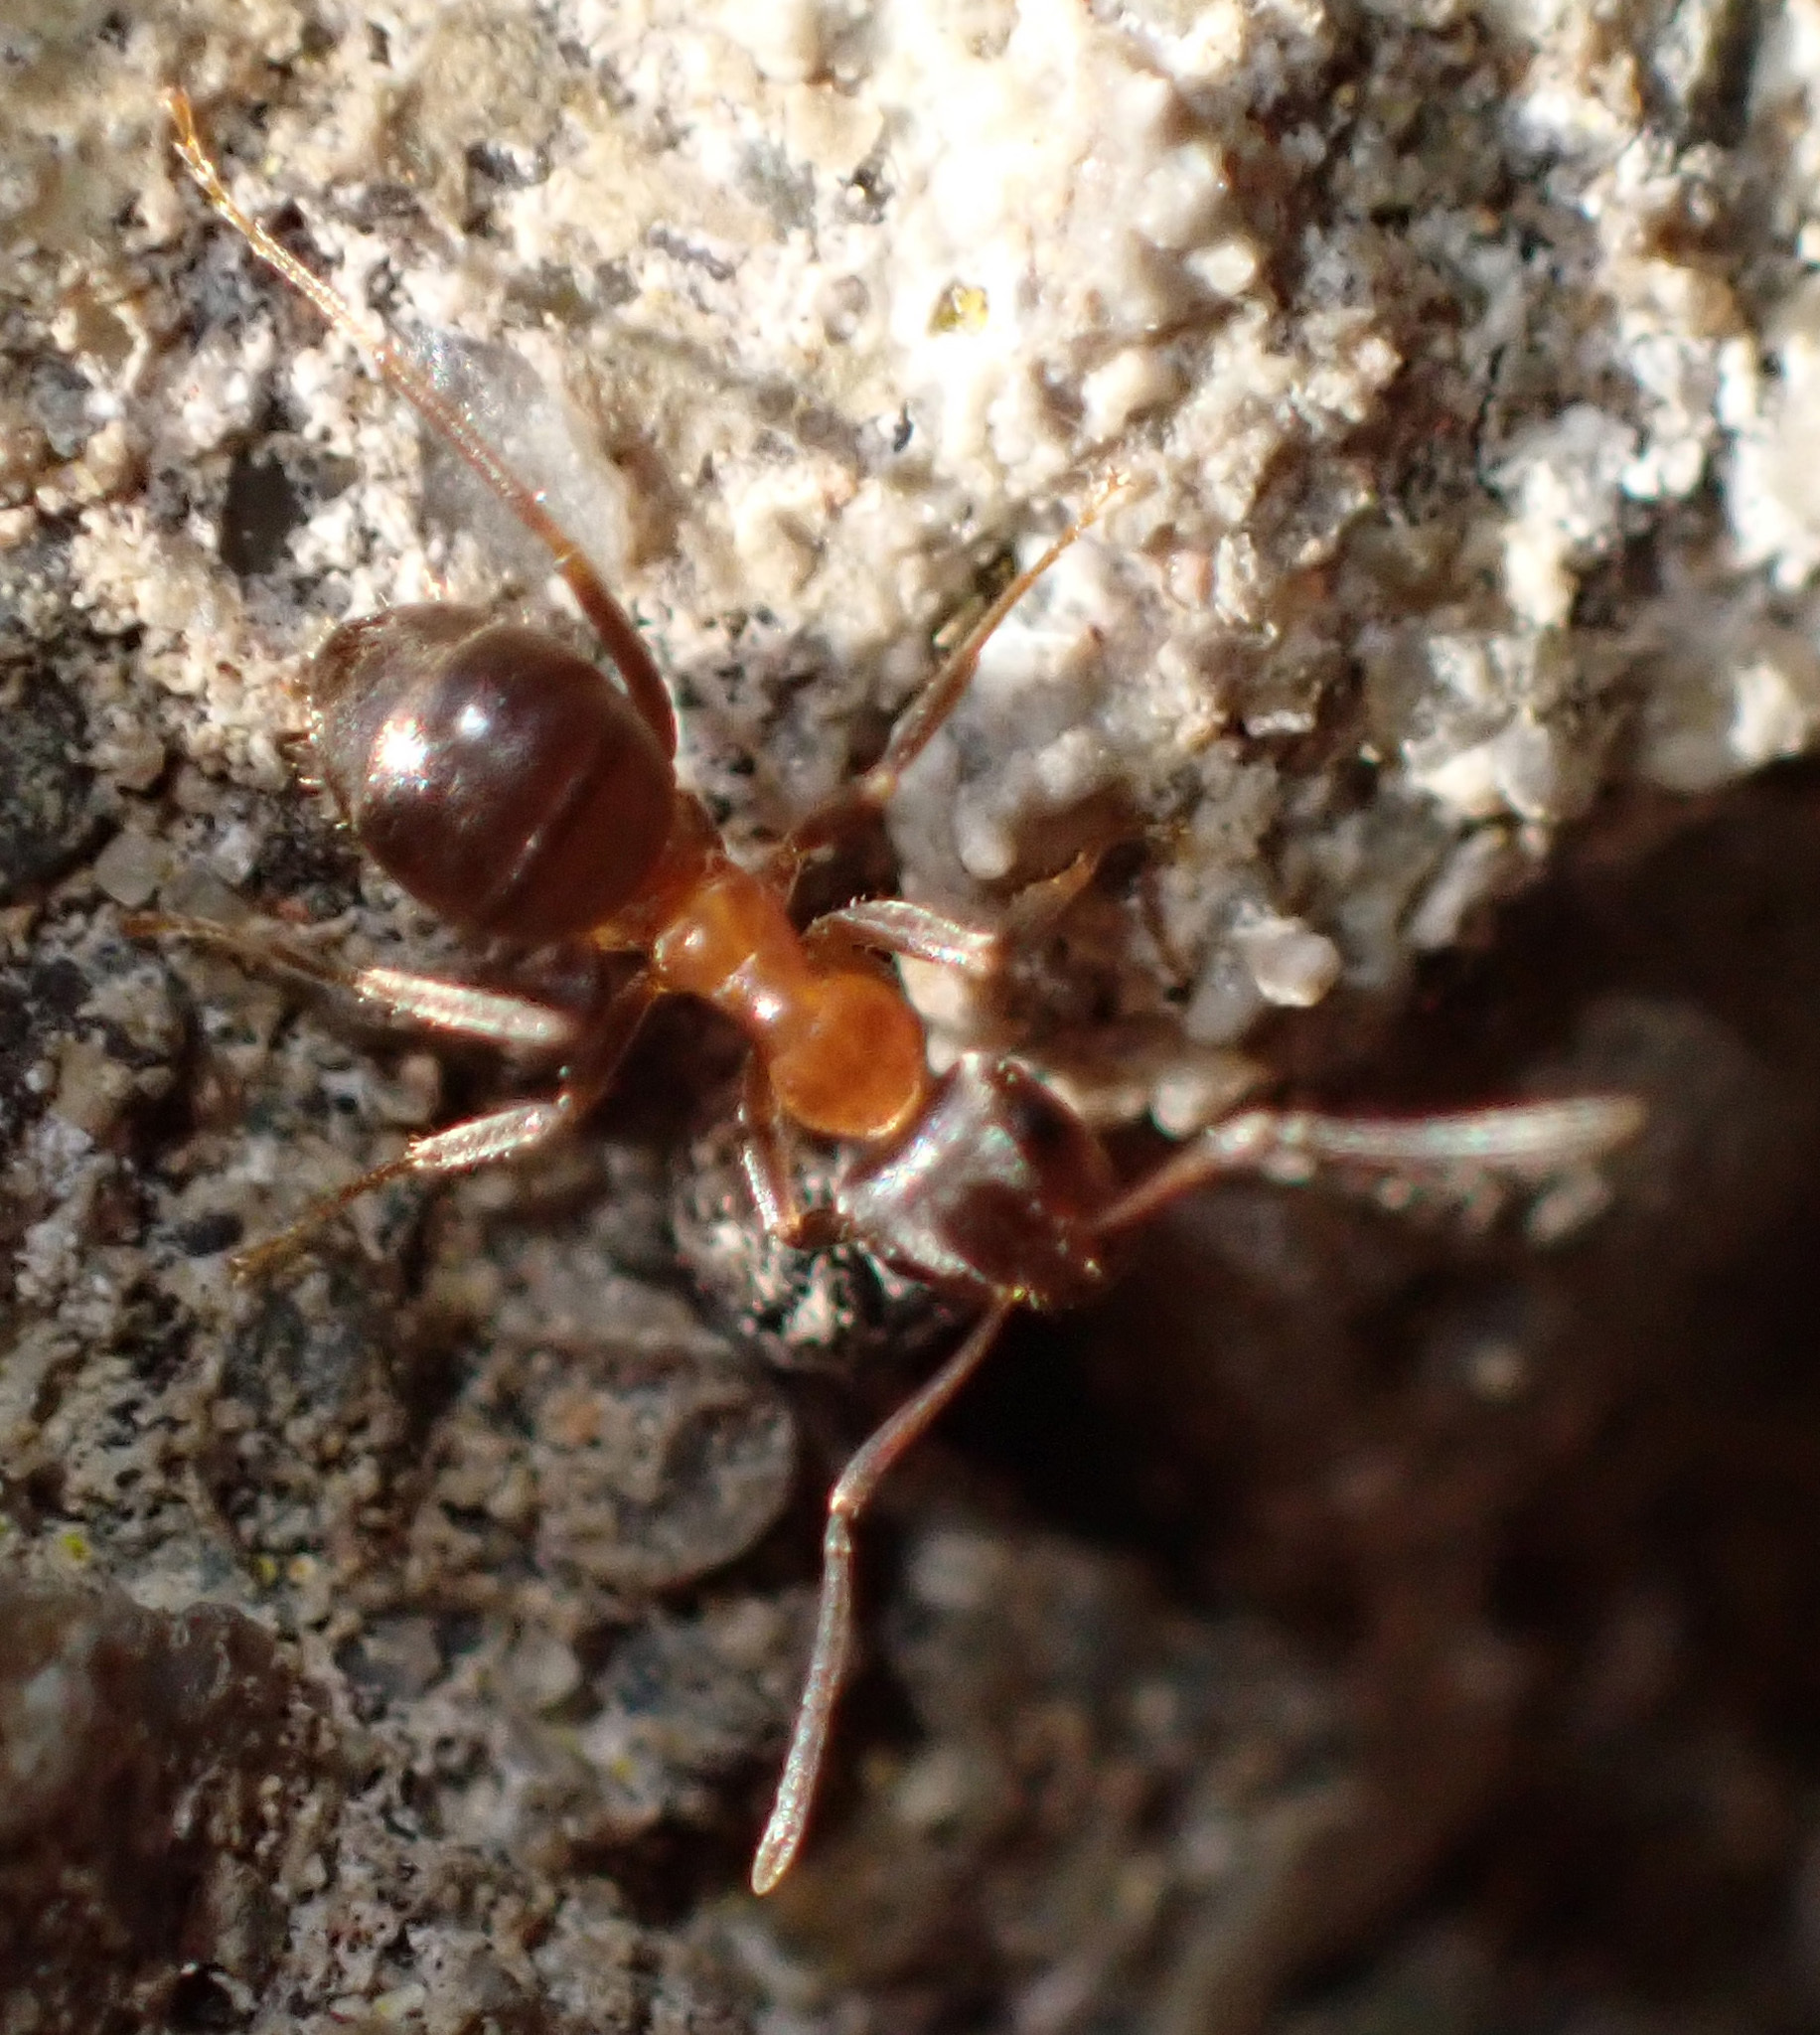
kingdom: Animalia
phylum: Arthropoda
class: Insecta
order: Hymenoptera
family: Formicidae
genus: Lasius
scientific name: Lasius emarginatus
